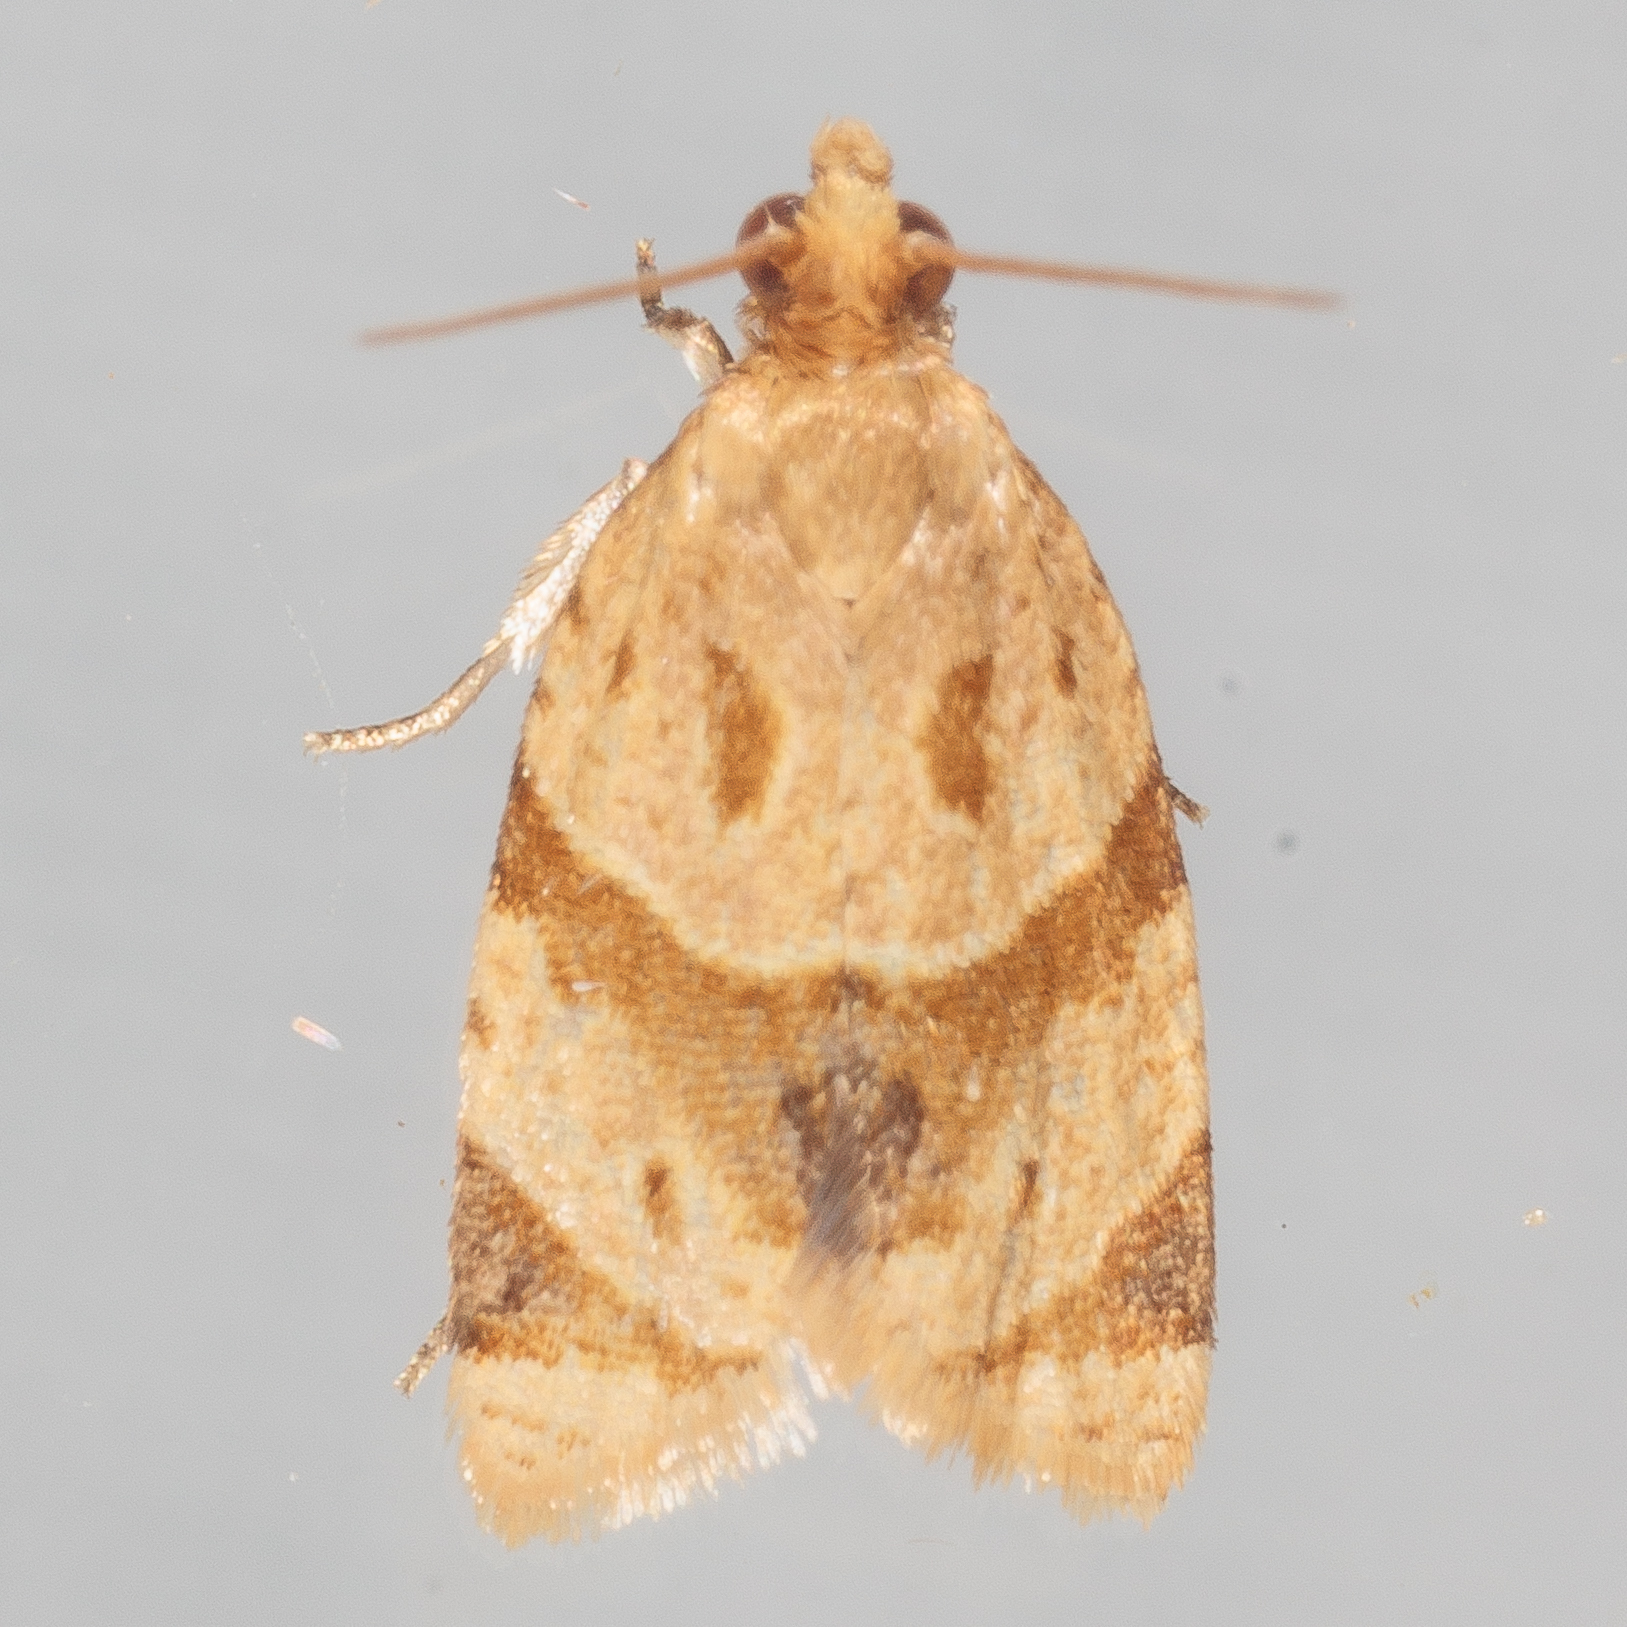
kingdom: Animalia
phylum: Arthropoda
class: Insecta
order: Lepidoptera
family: Tortricidae
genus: Clepsis
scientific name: Clepsis peritana
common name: Garden tortrix
